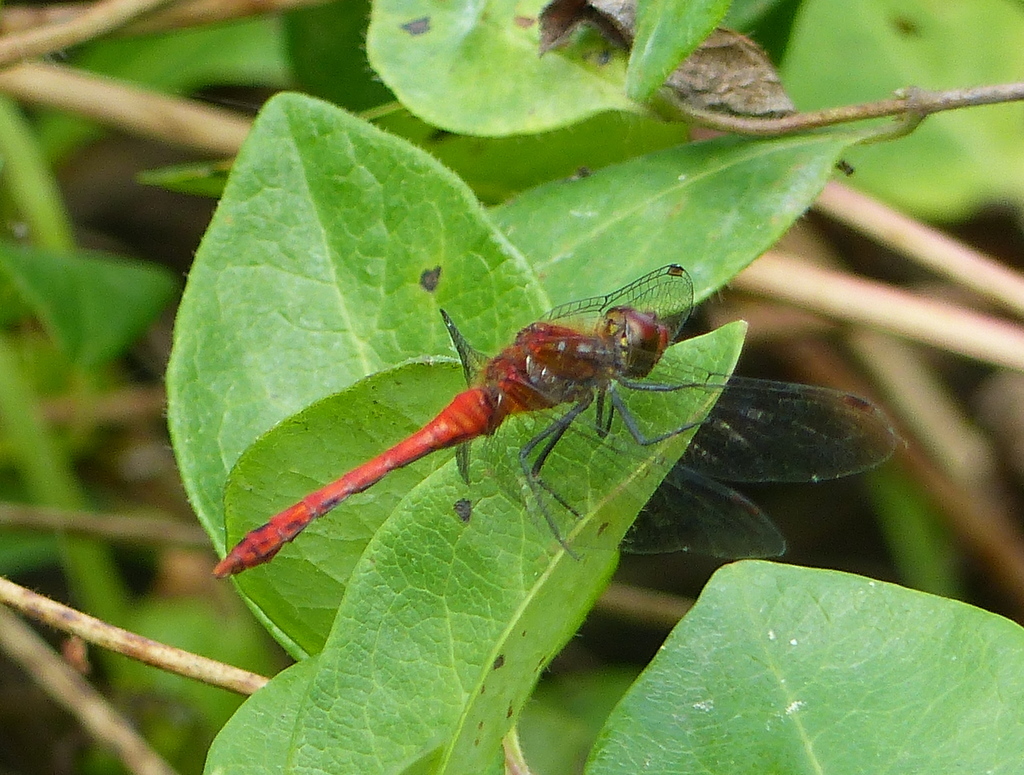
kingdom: Animalia
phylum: Arthropoda
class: Insecta
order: Odonata
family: Libellulidae
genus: Sympetrum
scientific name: Sympetrum sanguineum
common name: Ruddy darter
